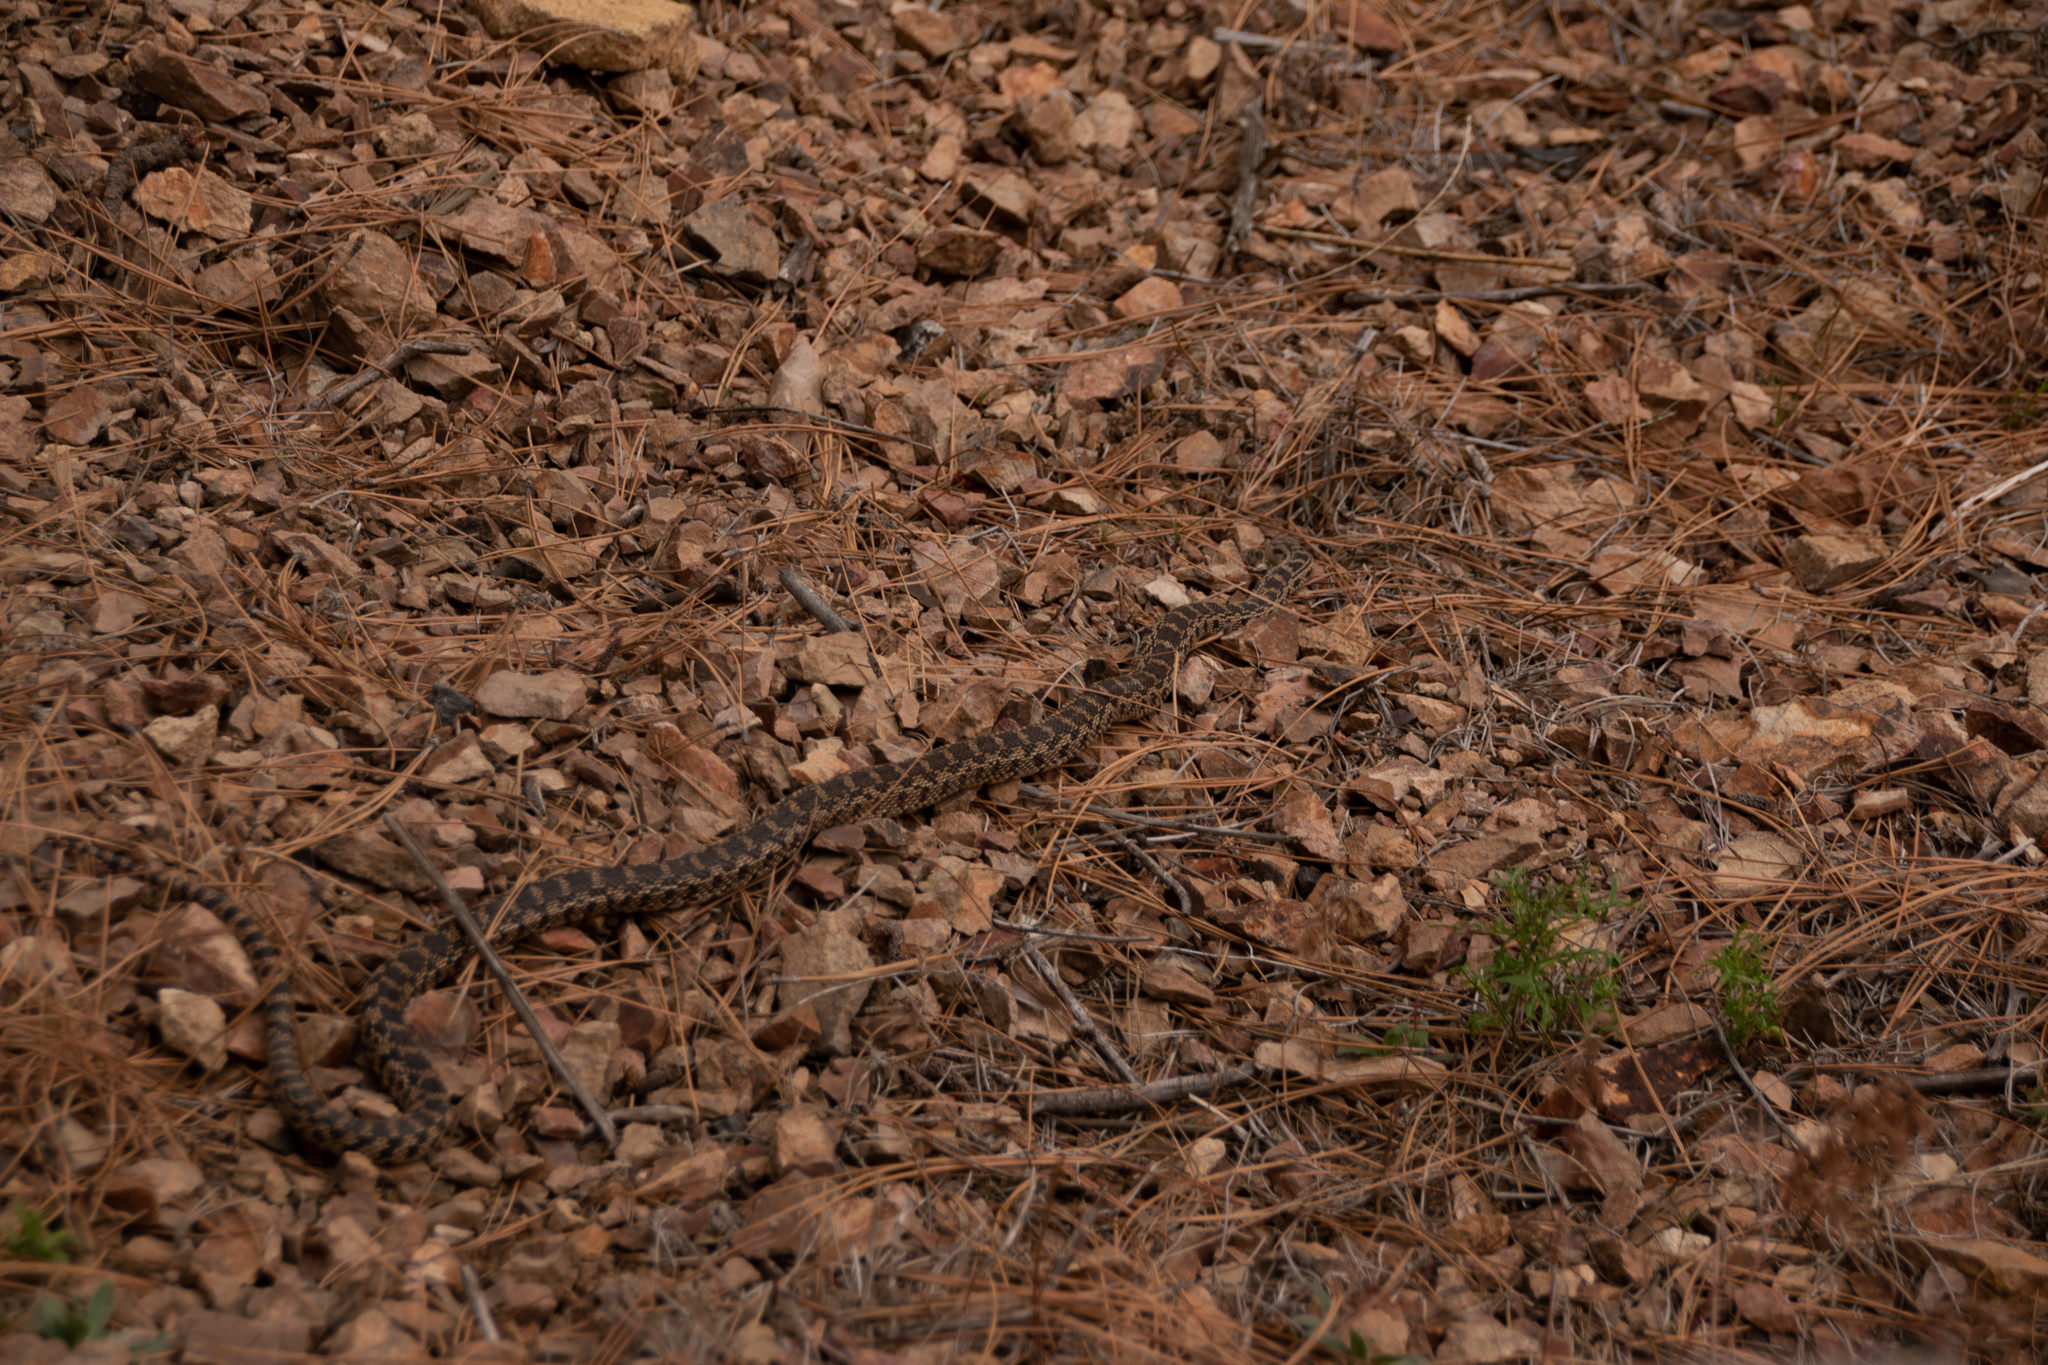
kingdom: Animalia
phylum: Chordata
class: Squamata
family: Colubridae
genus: Pituophis
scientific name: Pituophis catenifer
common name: Gopher snake
